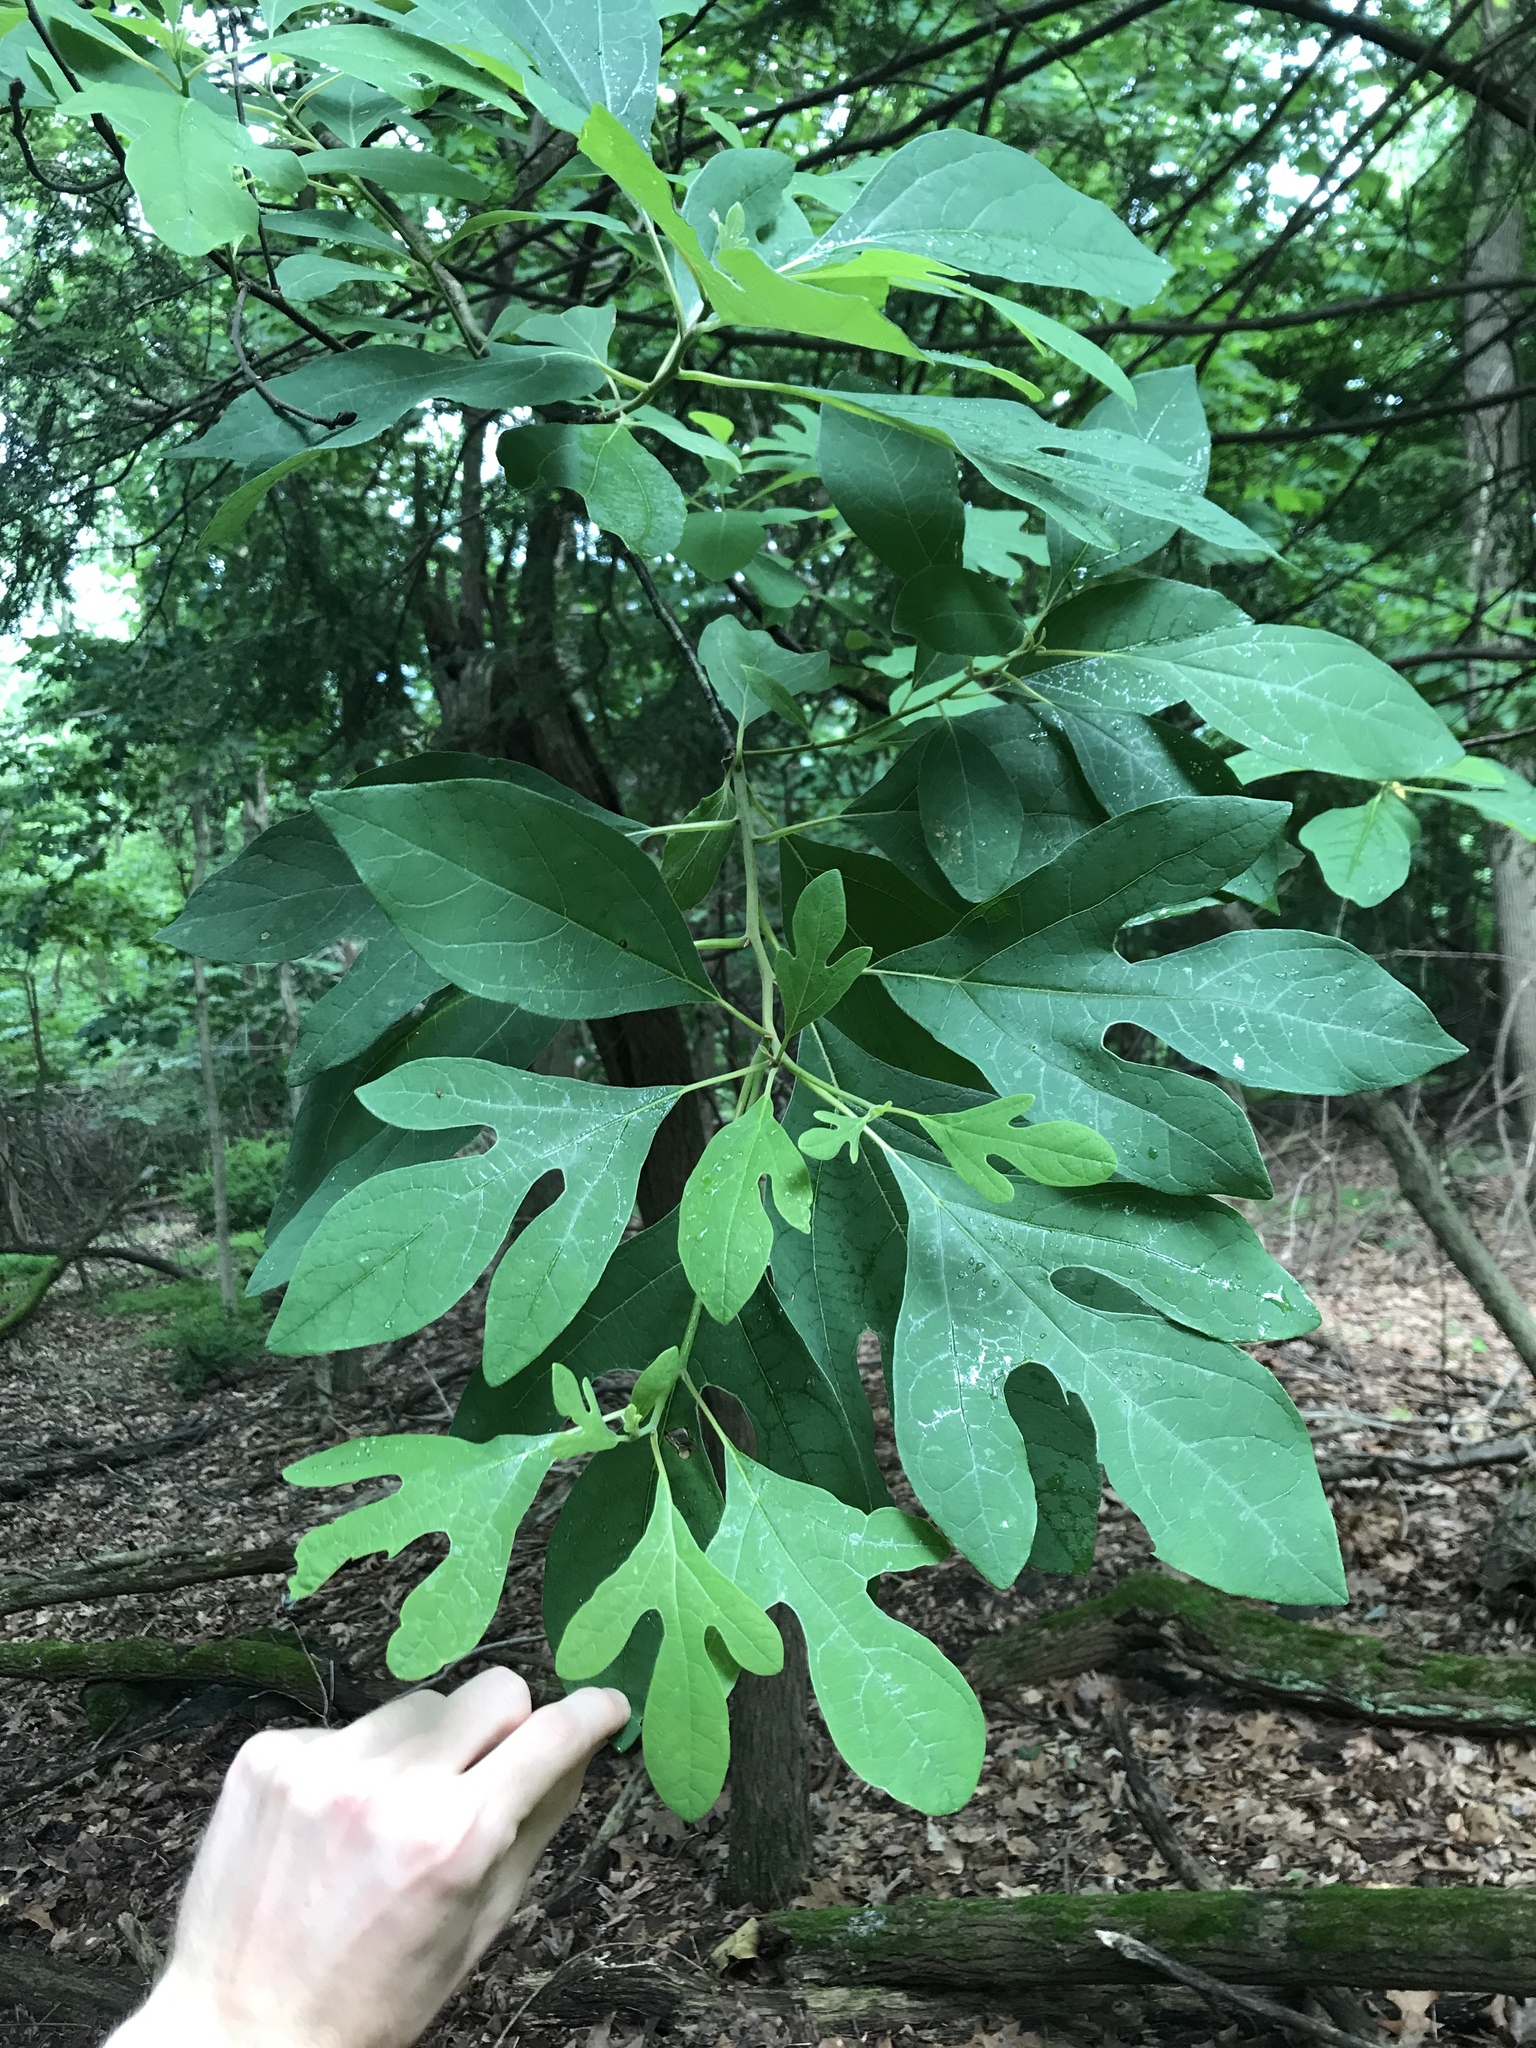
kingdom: Plantae
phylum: Tracheophyta
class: Magnoliopsida
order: Laurales
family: Lauraceae
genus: Sassafras
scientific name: Sassafras albidum
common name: Sassafras
